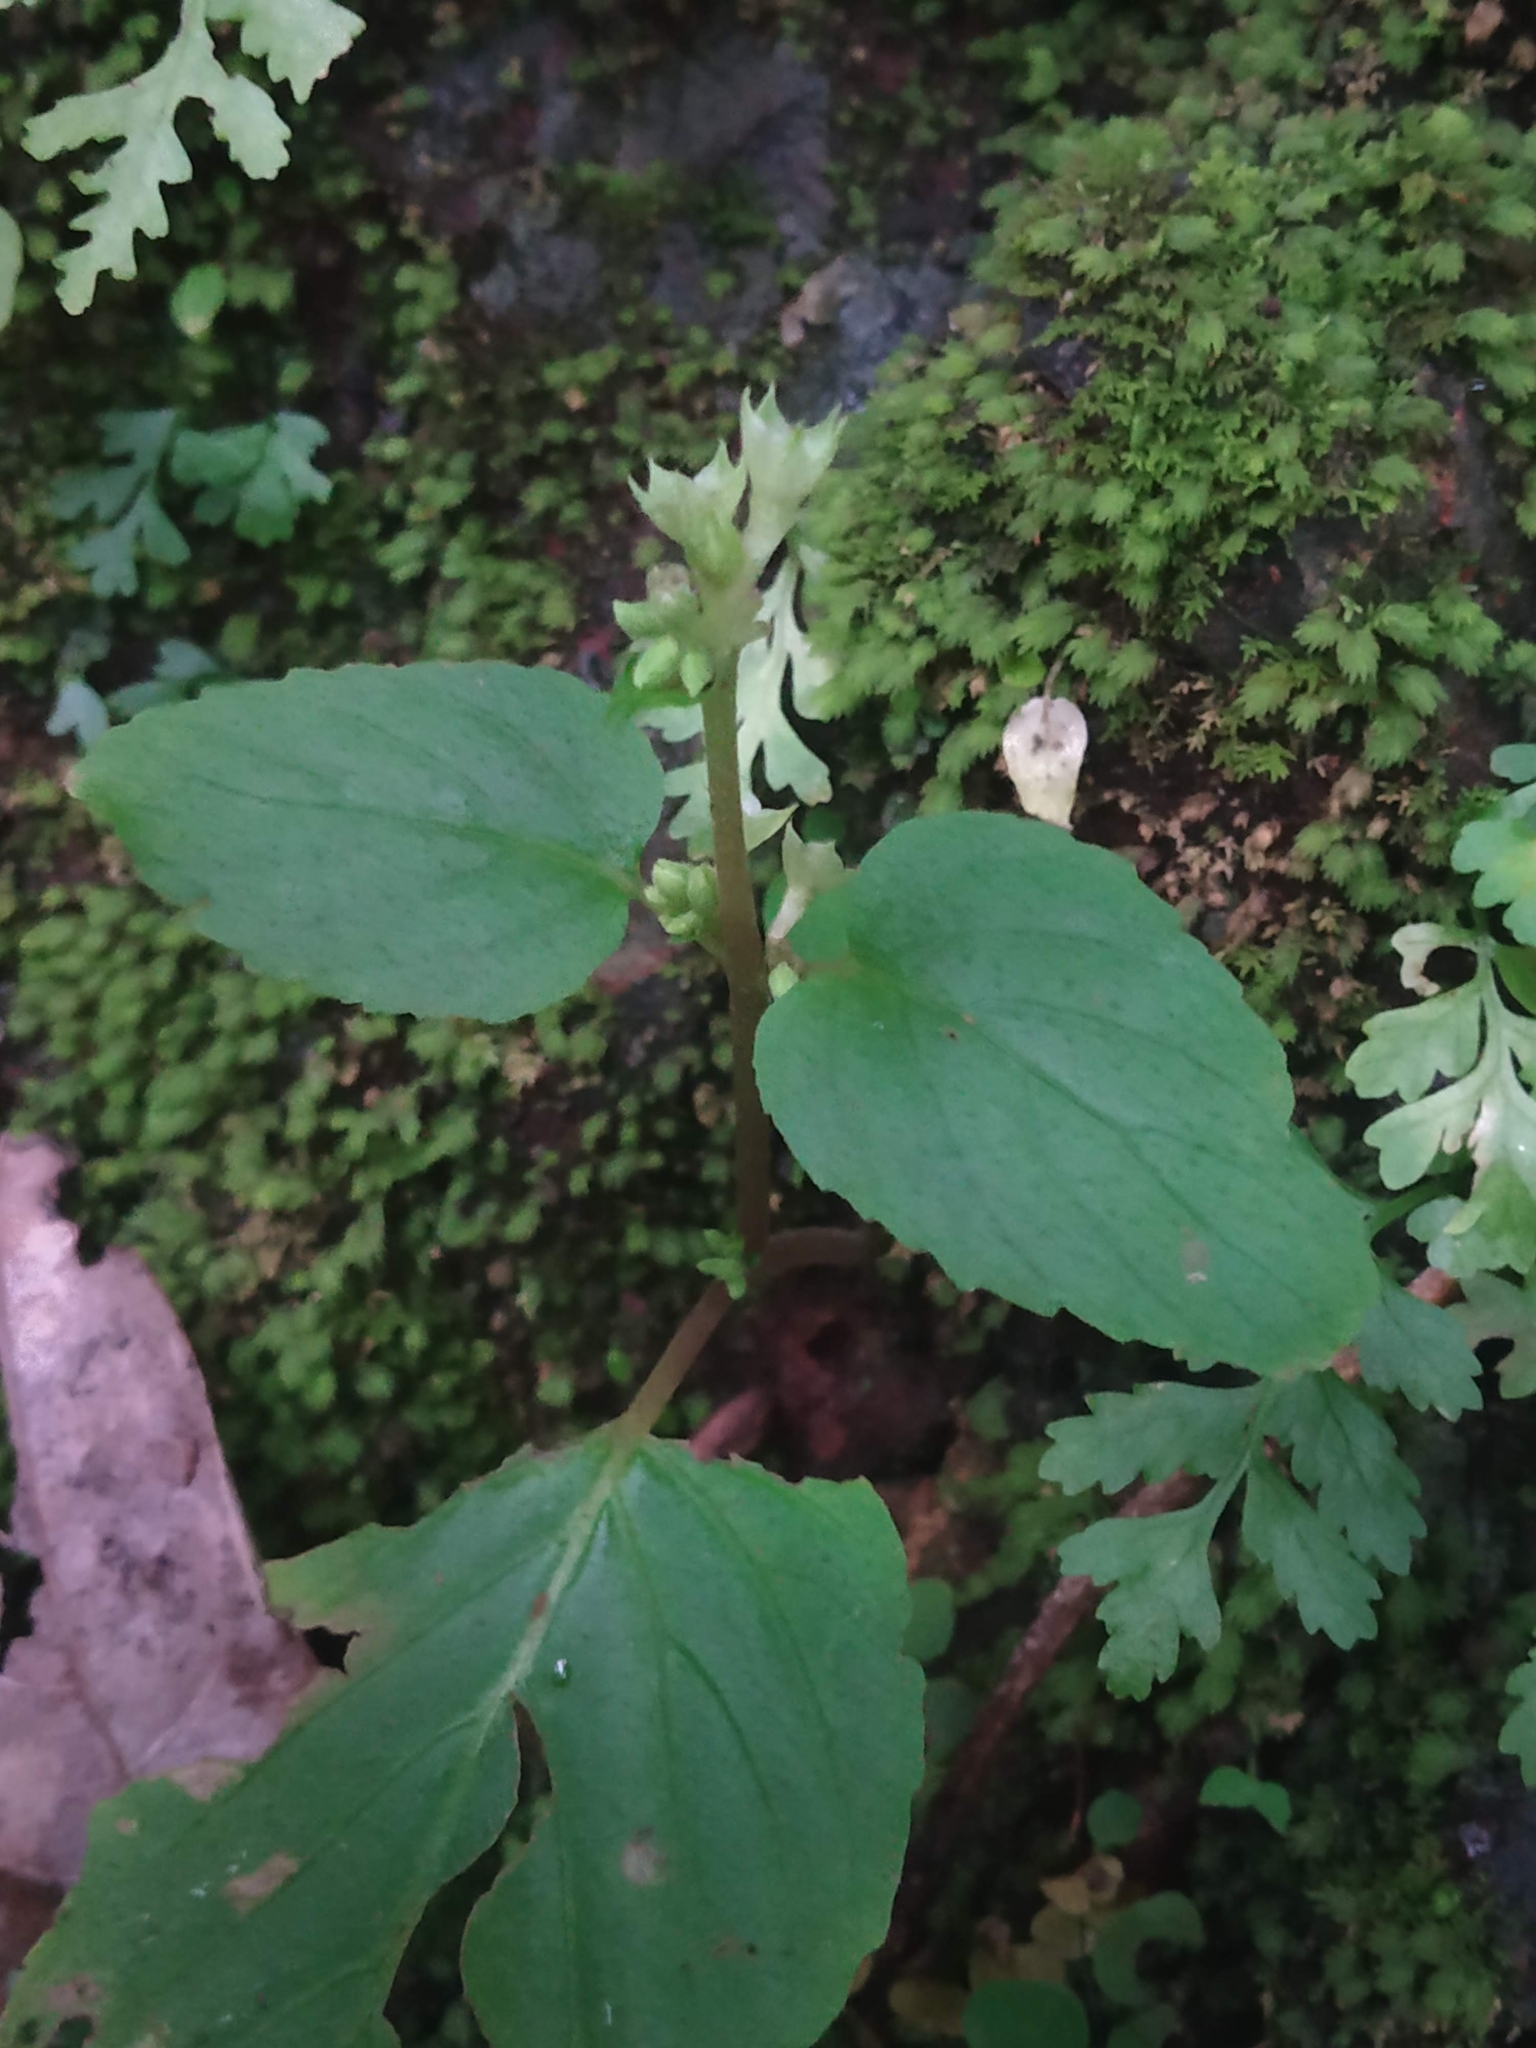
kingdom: Plantae
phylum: Tracheophyta
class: Magnoliopsida
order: Lamiales
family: Gesneriaceae
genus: Epithema
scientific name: Epithema carnosum
